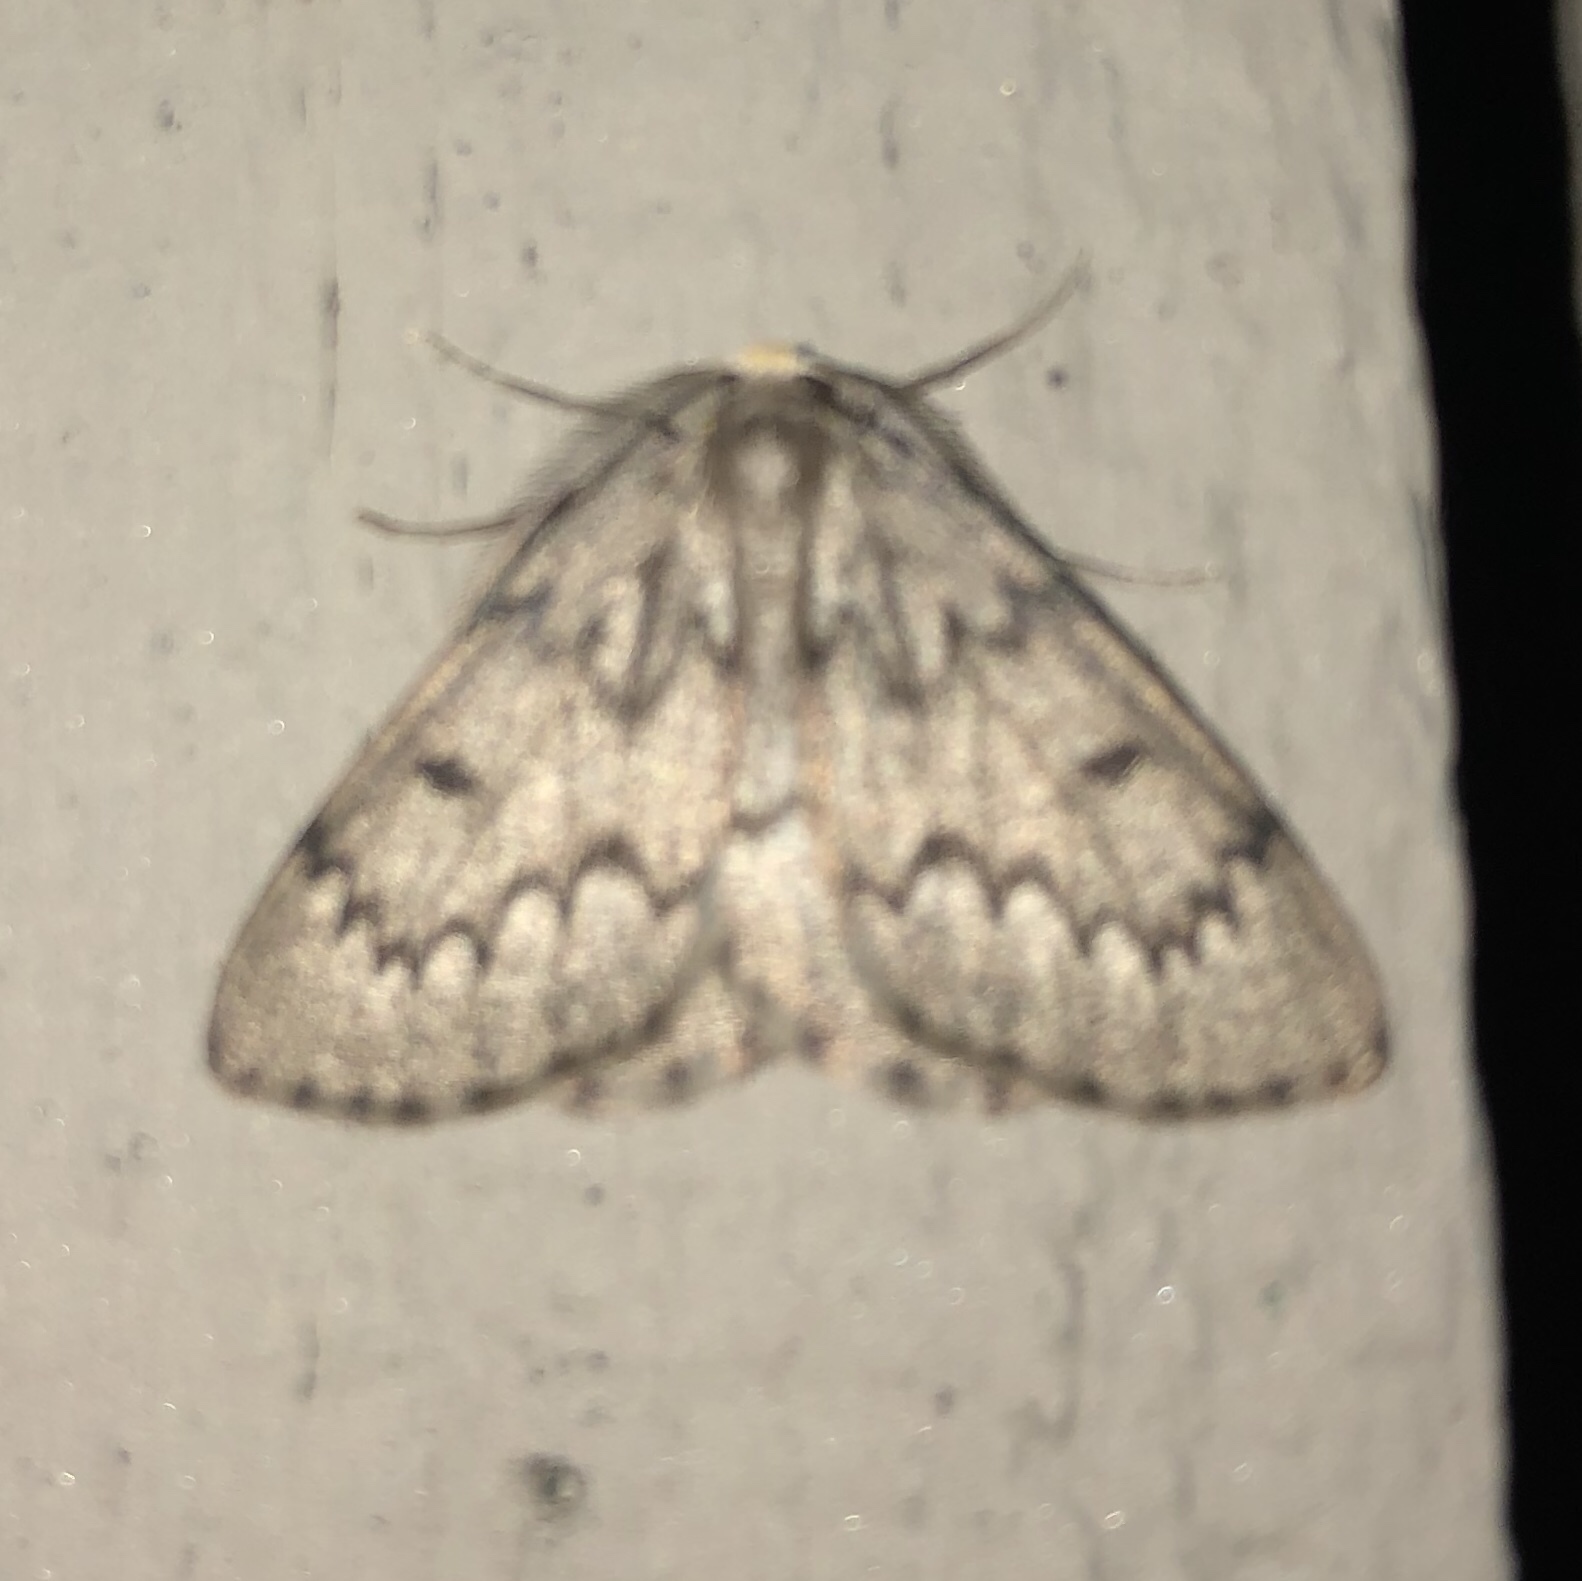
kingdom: Animalia
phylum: Arthropoda
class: Insecta
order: Lepidoptera
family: Geometridae
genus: Nepytia
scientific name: Nepytia canosaria
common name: False hemlock looper
